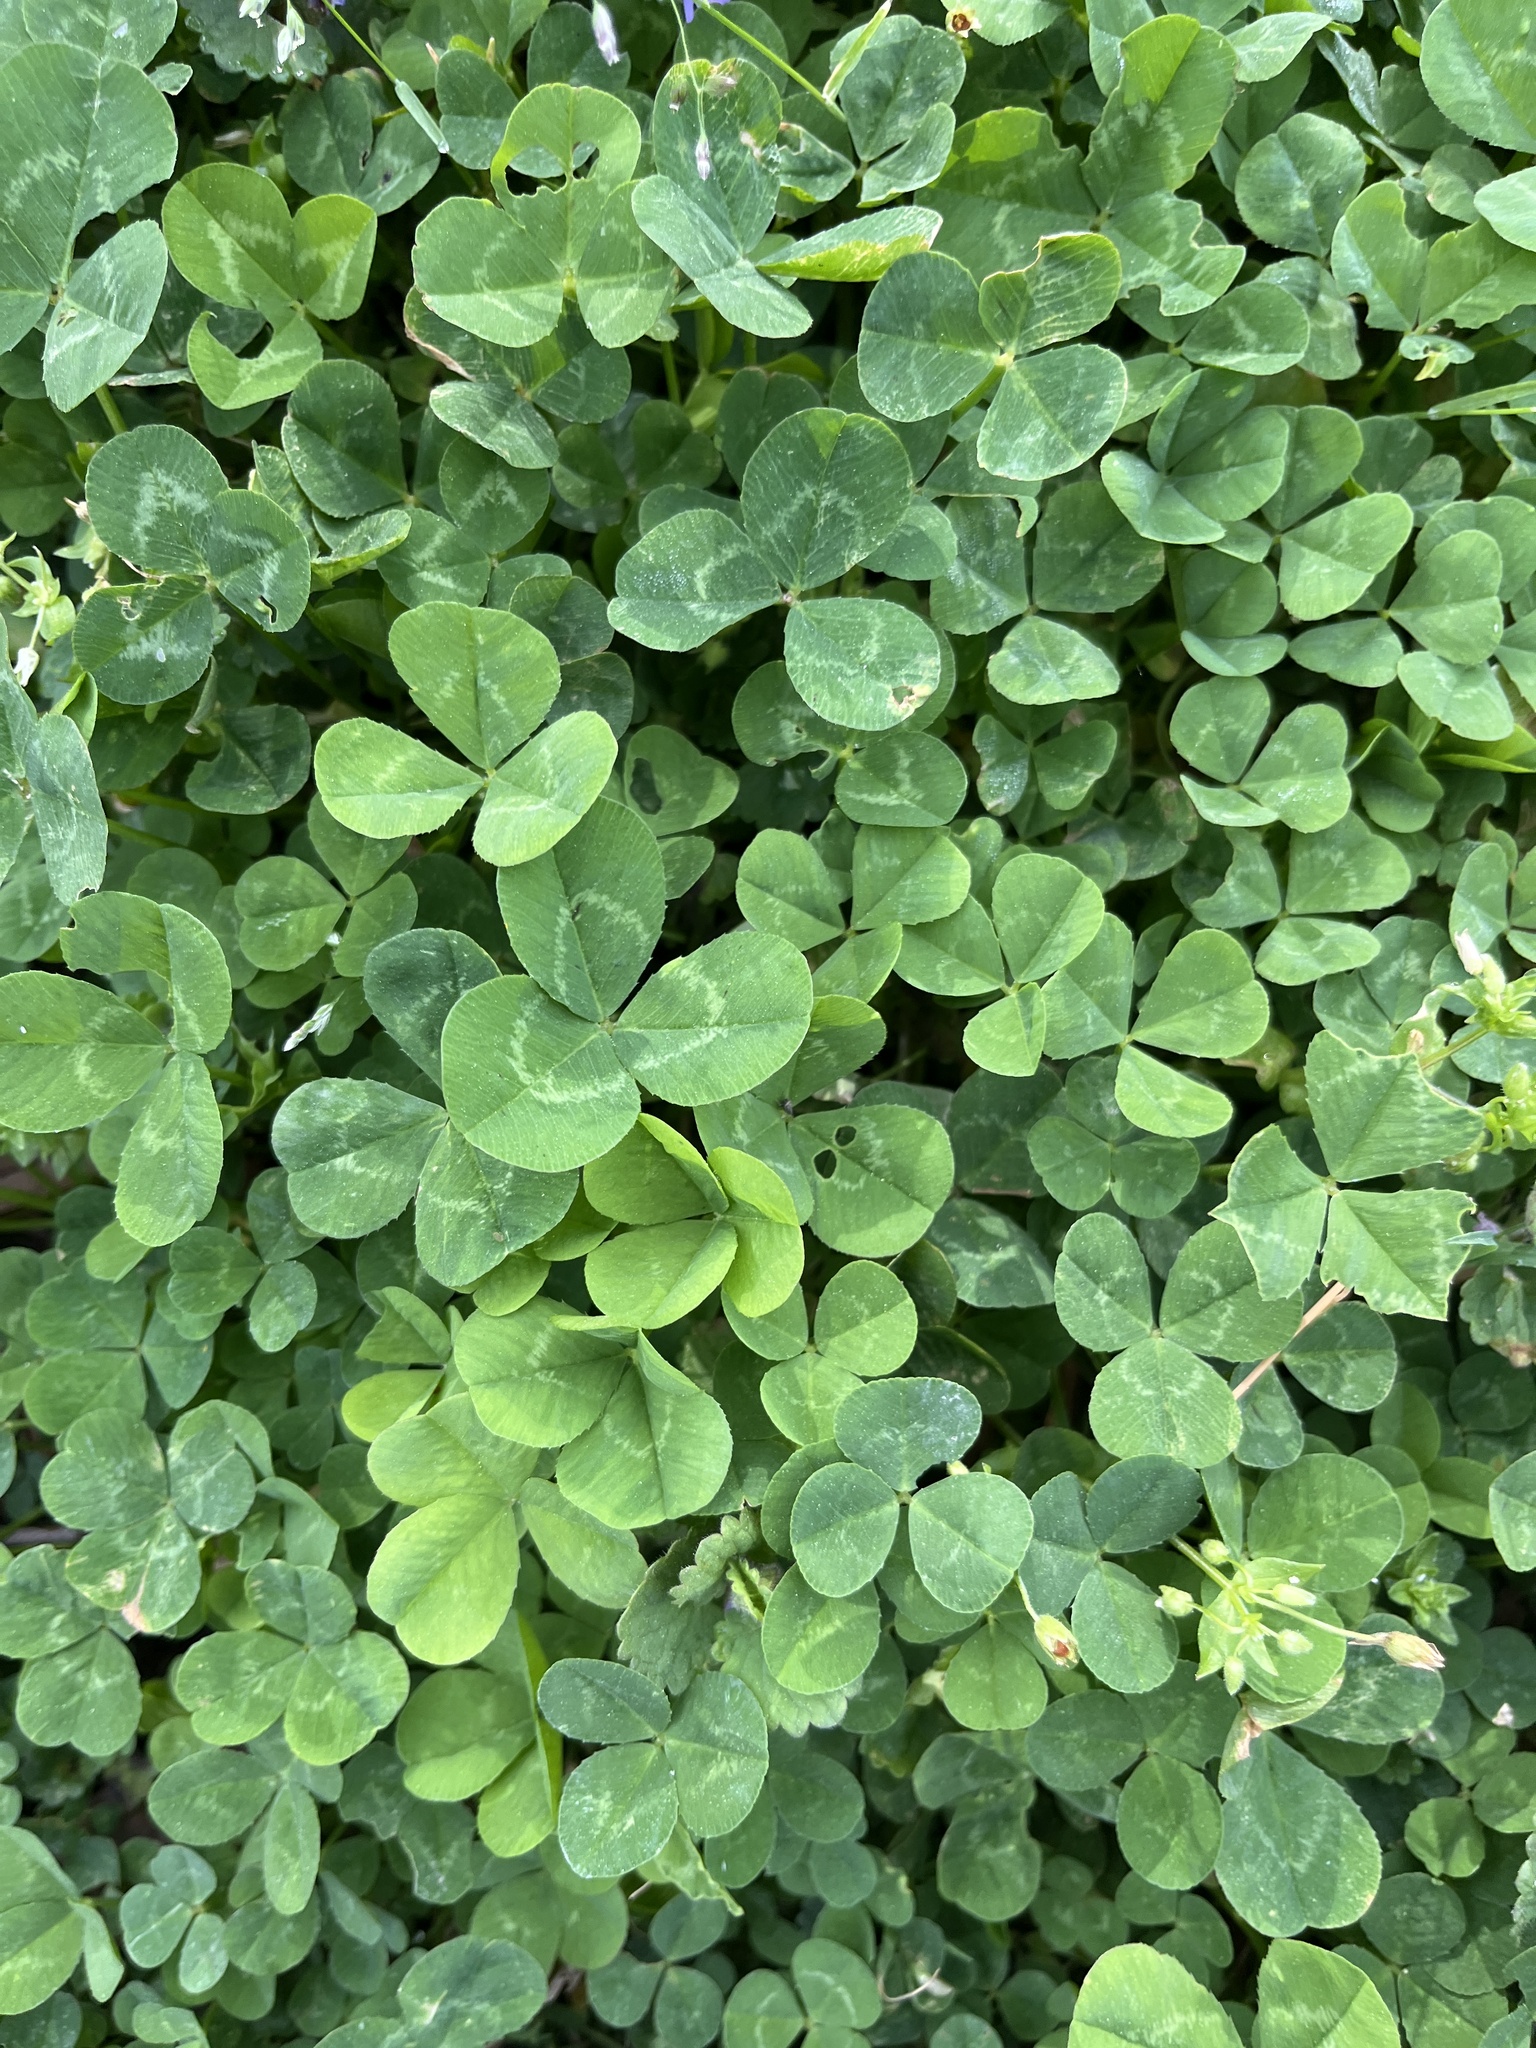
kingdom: Plantae
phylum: Tracheophyta
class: Magnoliopsida
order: Fabales
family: Fabaceae
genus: Trifolium
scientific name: Trifolium repens
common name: White clover
